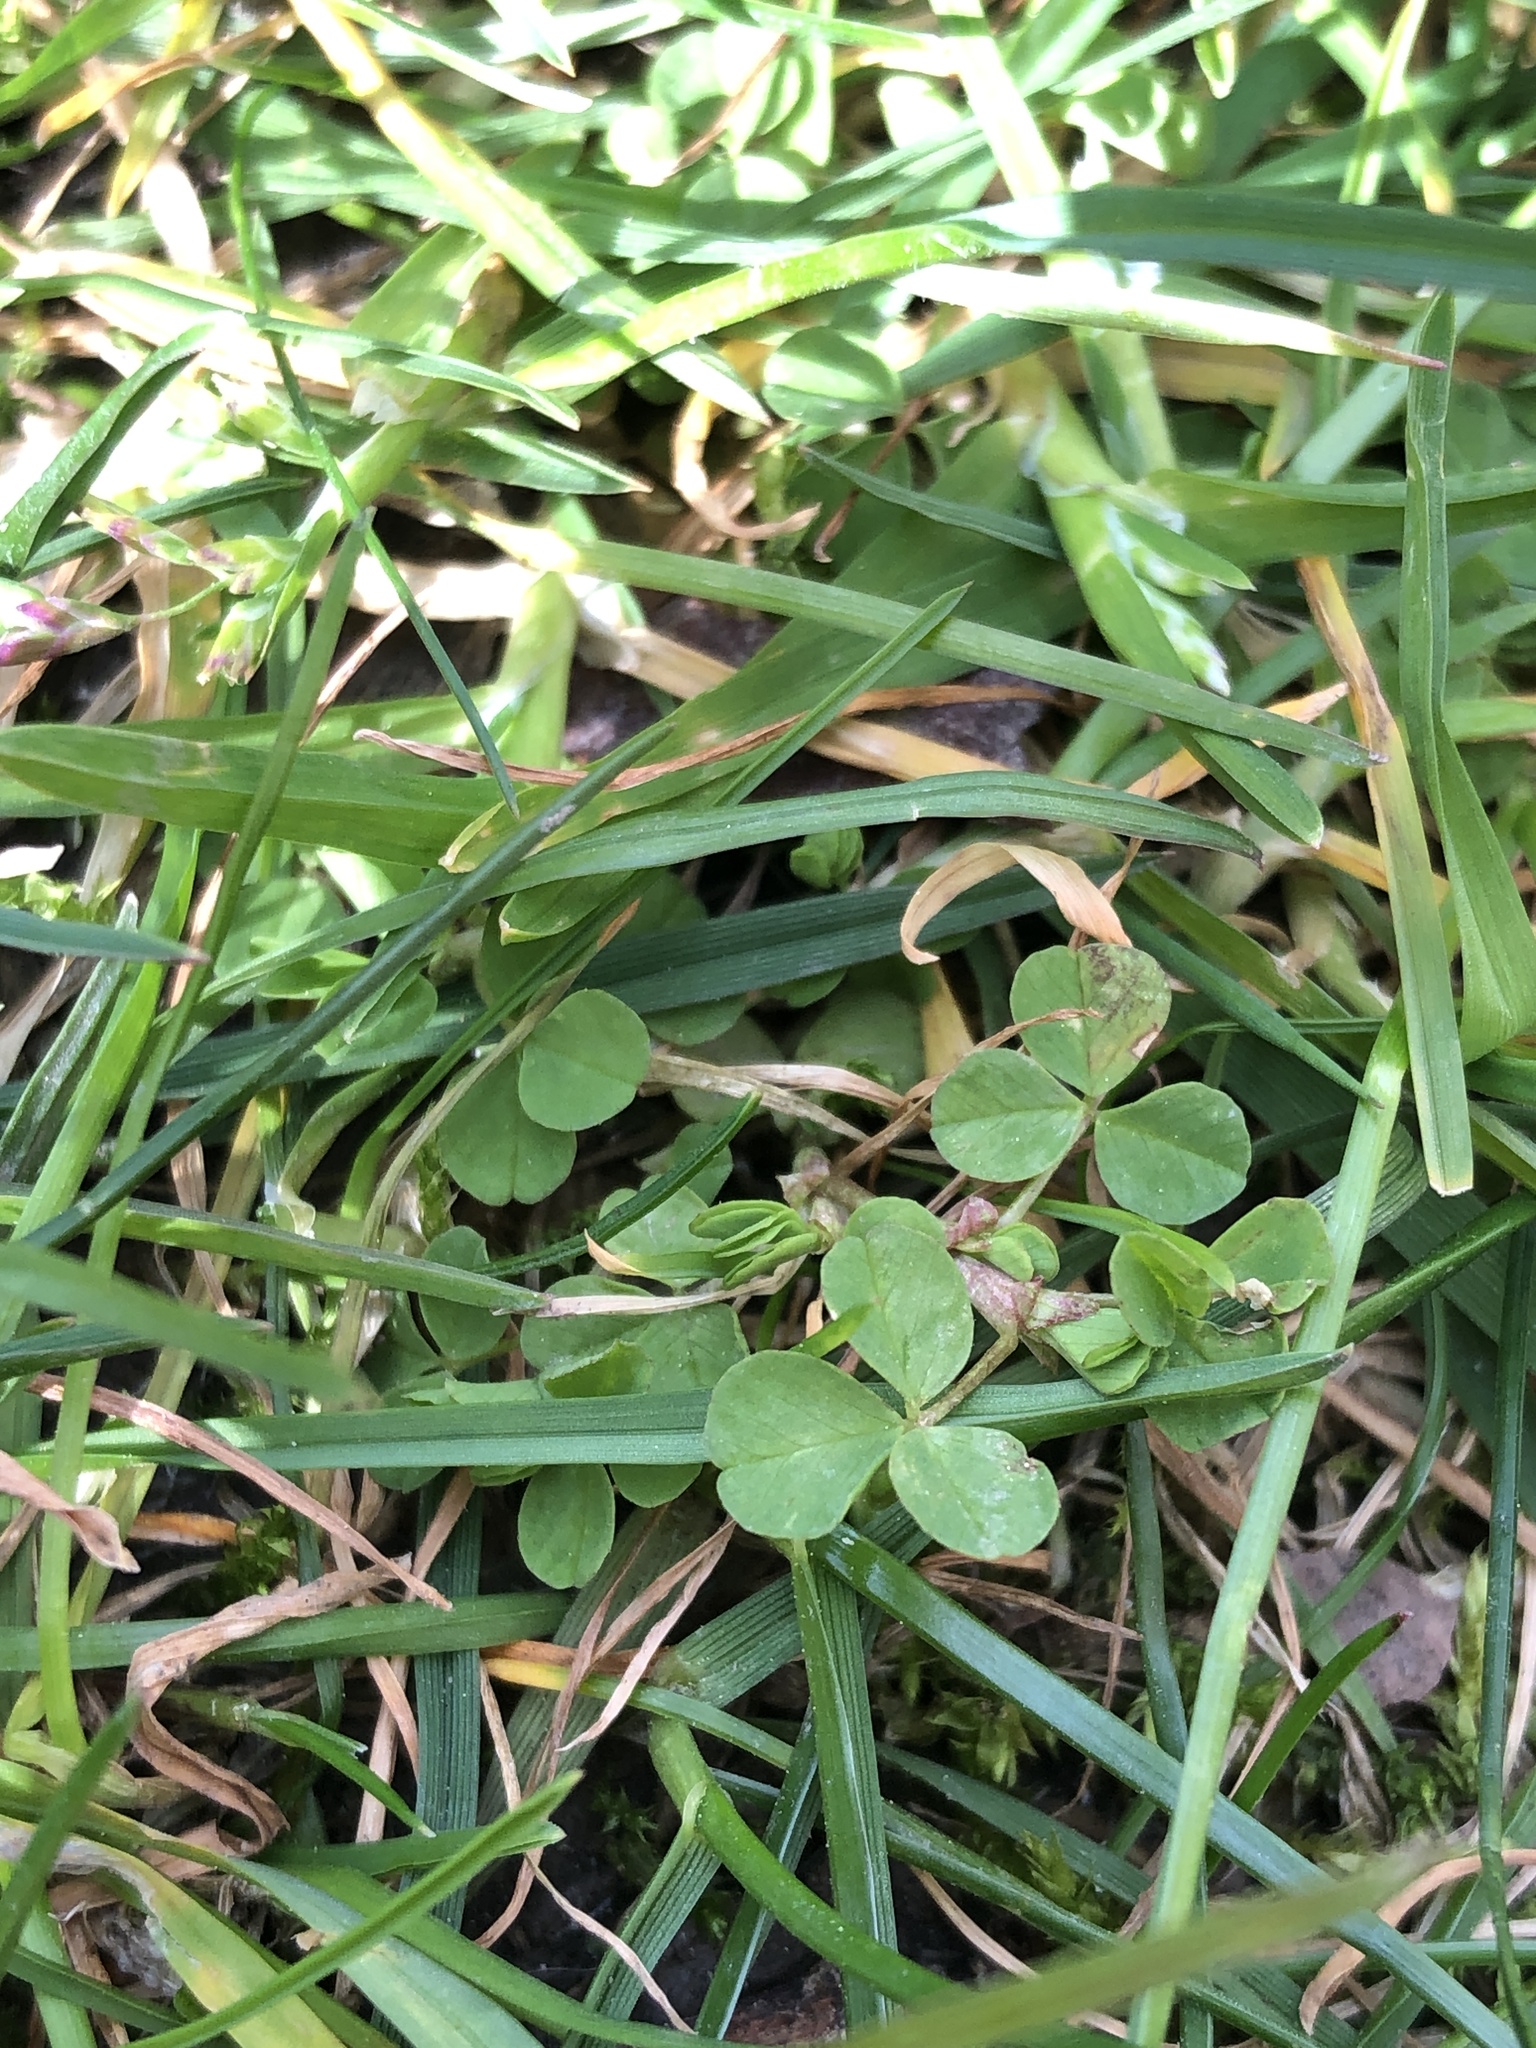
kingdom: Plantae
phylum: Tracheophyta
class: Magnoliopsida
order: Fabales
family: Fabaceae
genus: Trifolium
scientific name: Trifolium repens
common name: White clover
